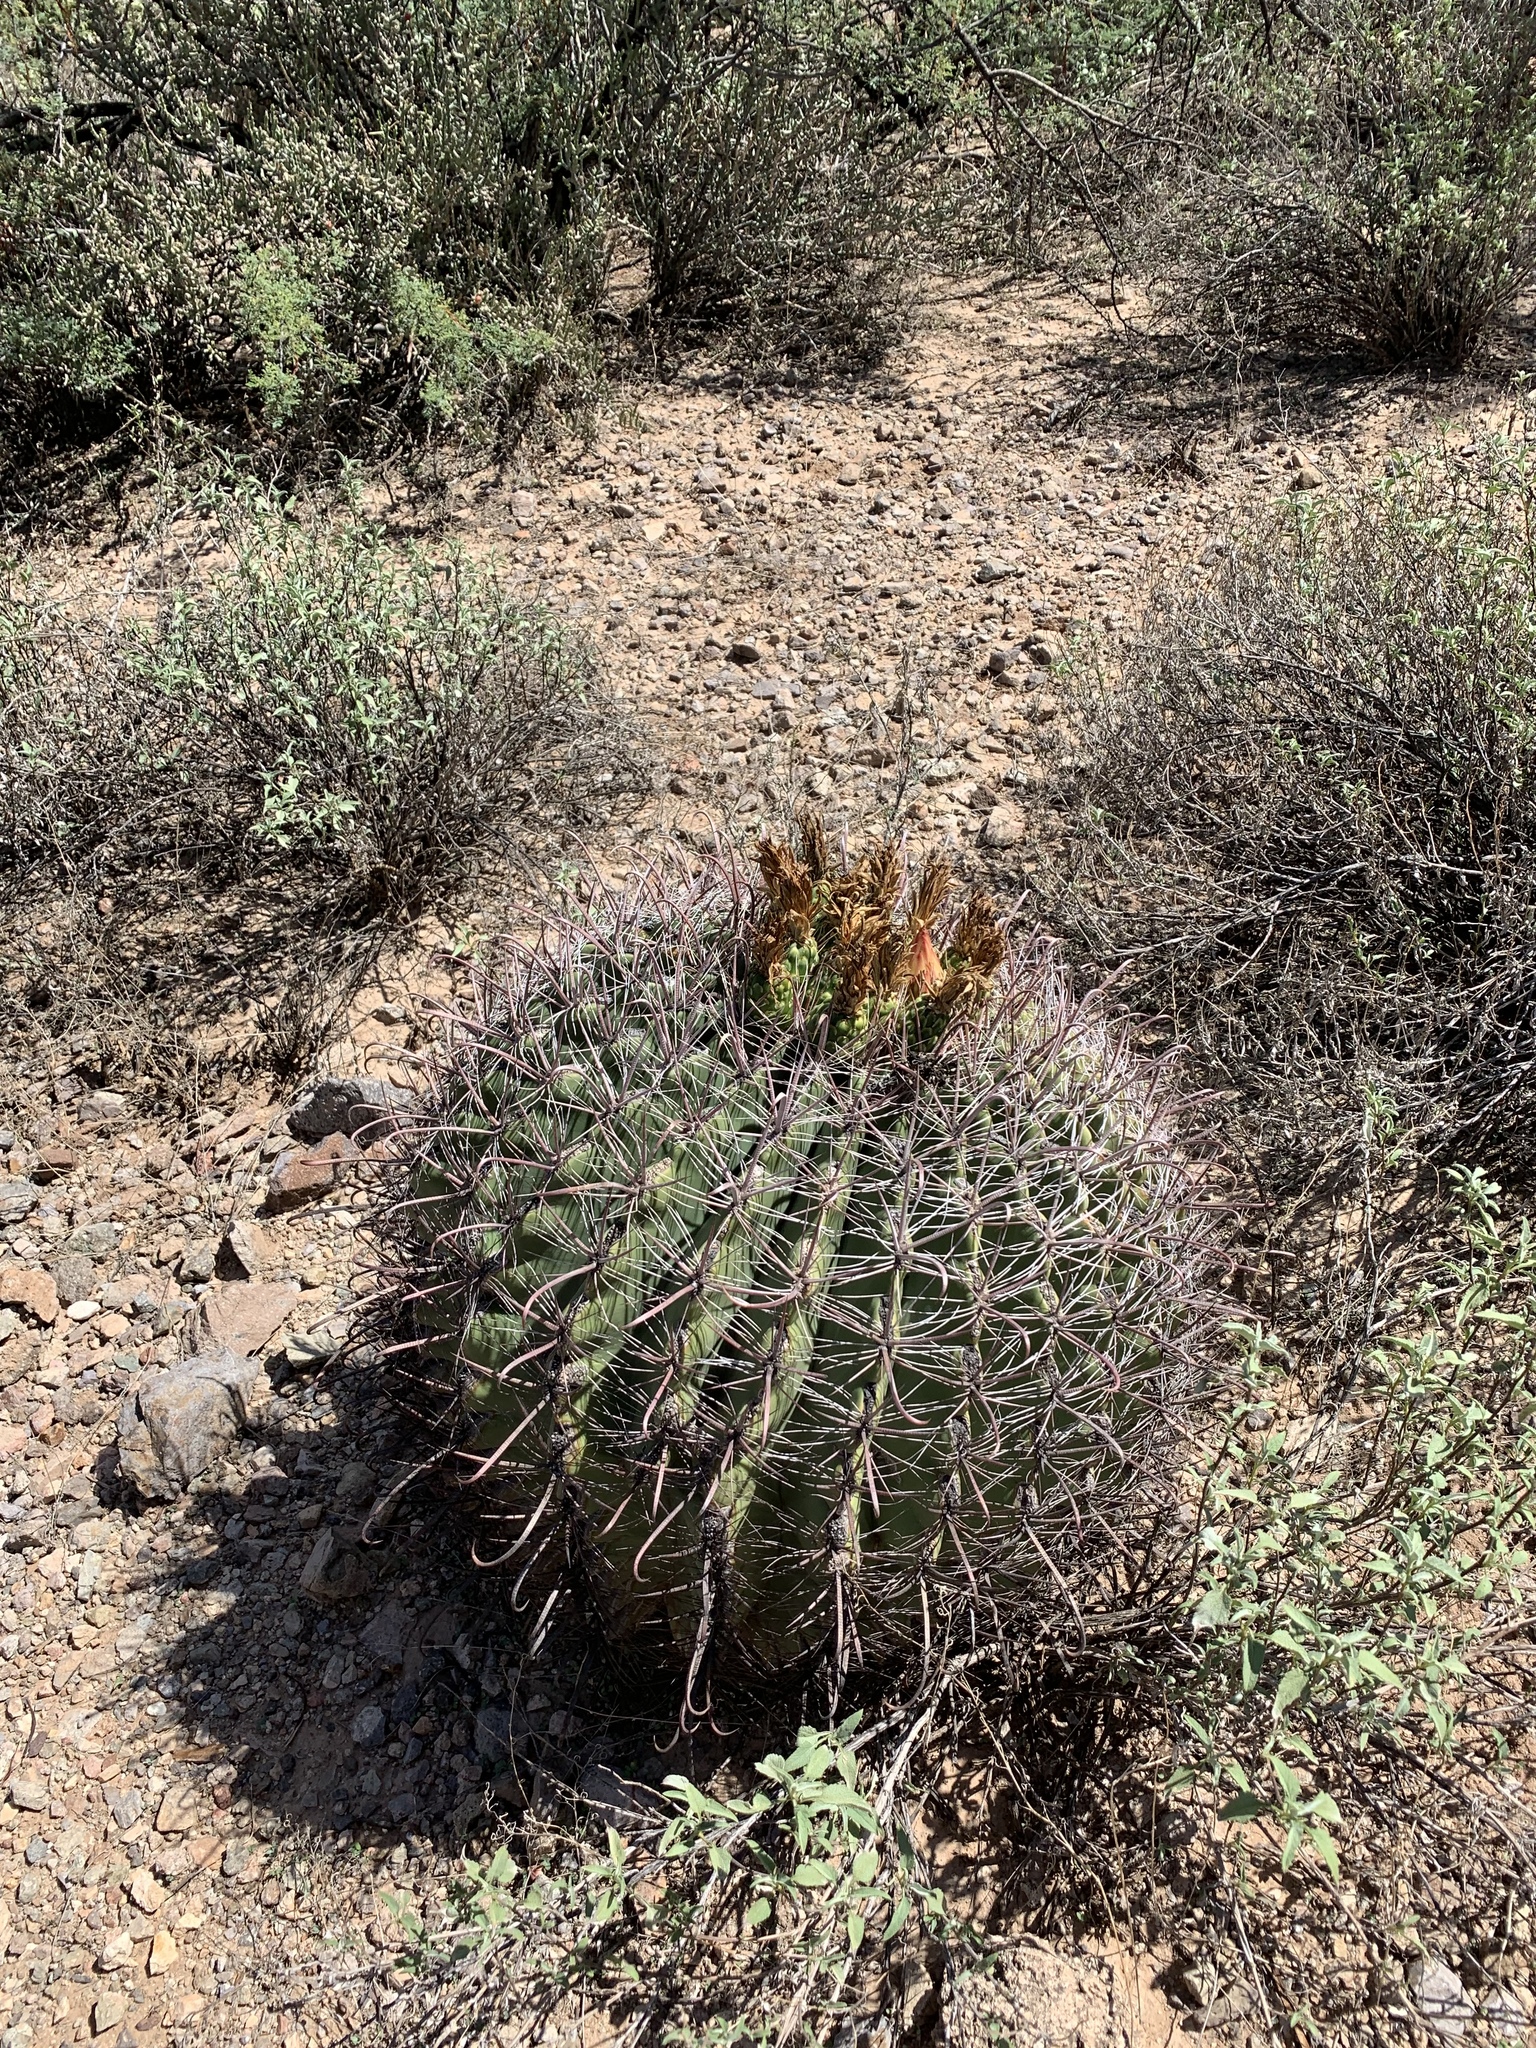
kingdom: Plantae
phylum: Tracheophyta
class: Magnoliopsida
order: Caryophyllales
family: Cactaceae
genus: Ferocactus
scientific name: Ferocactus wislizeni
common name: Candy barrel cactus
